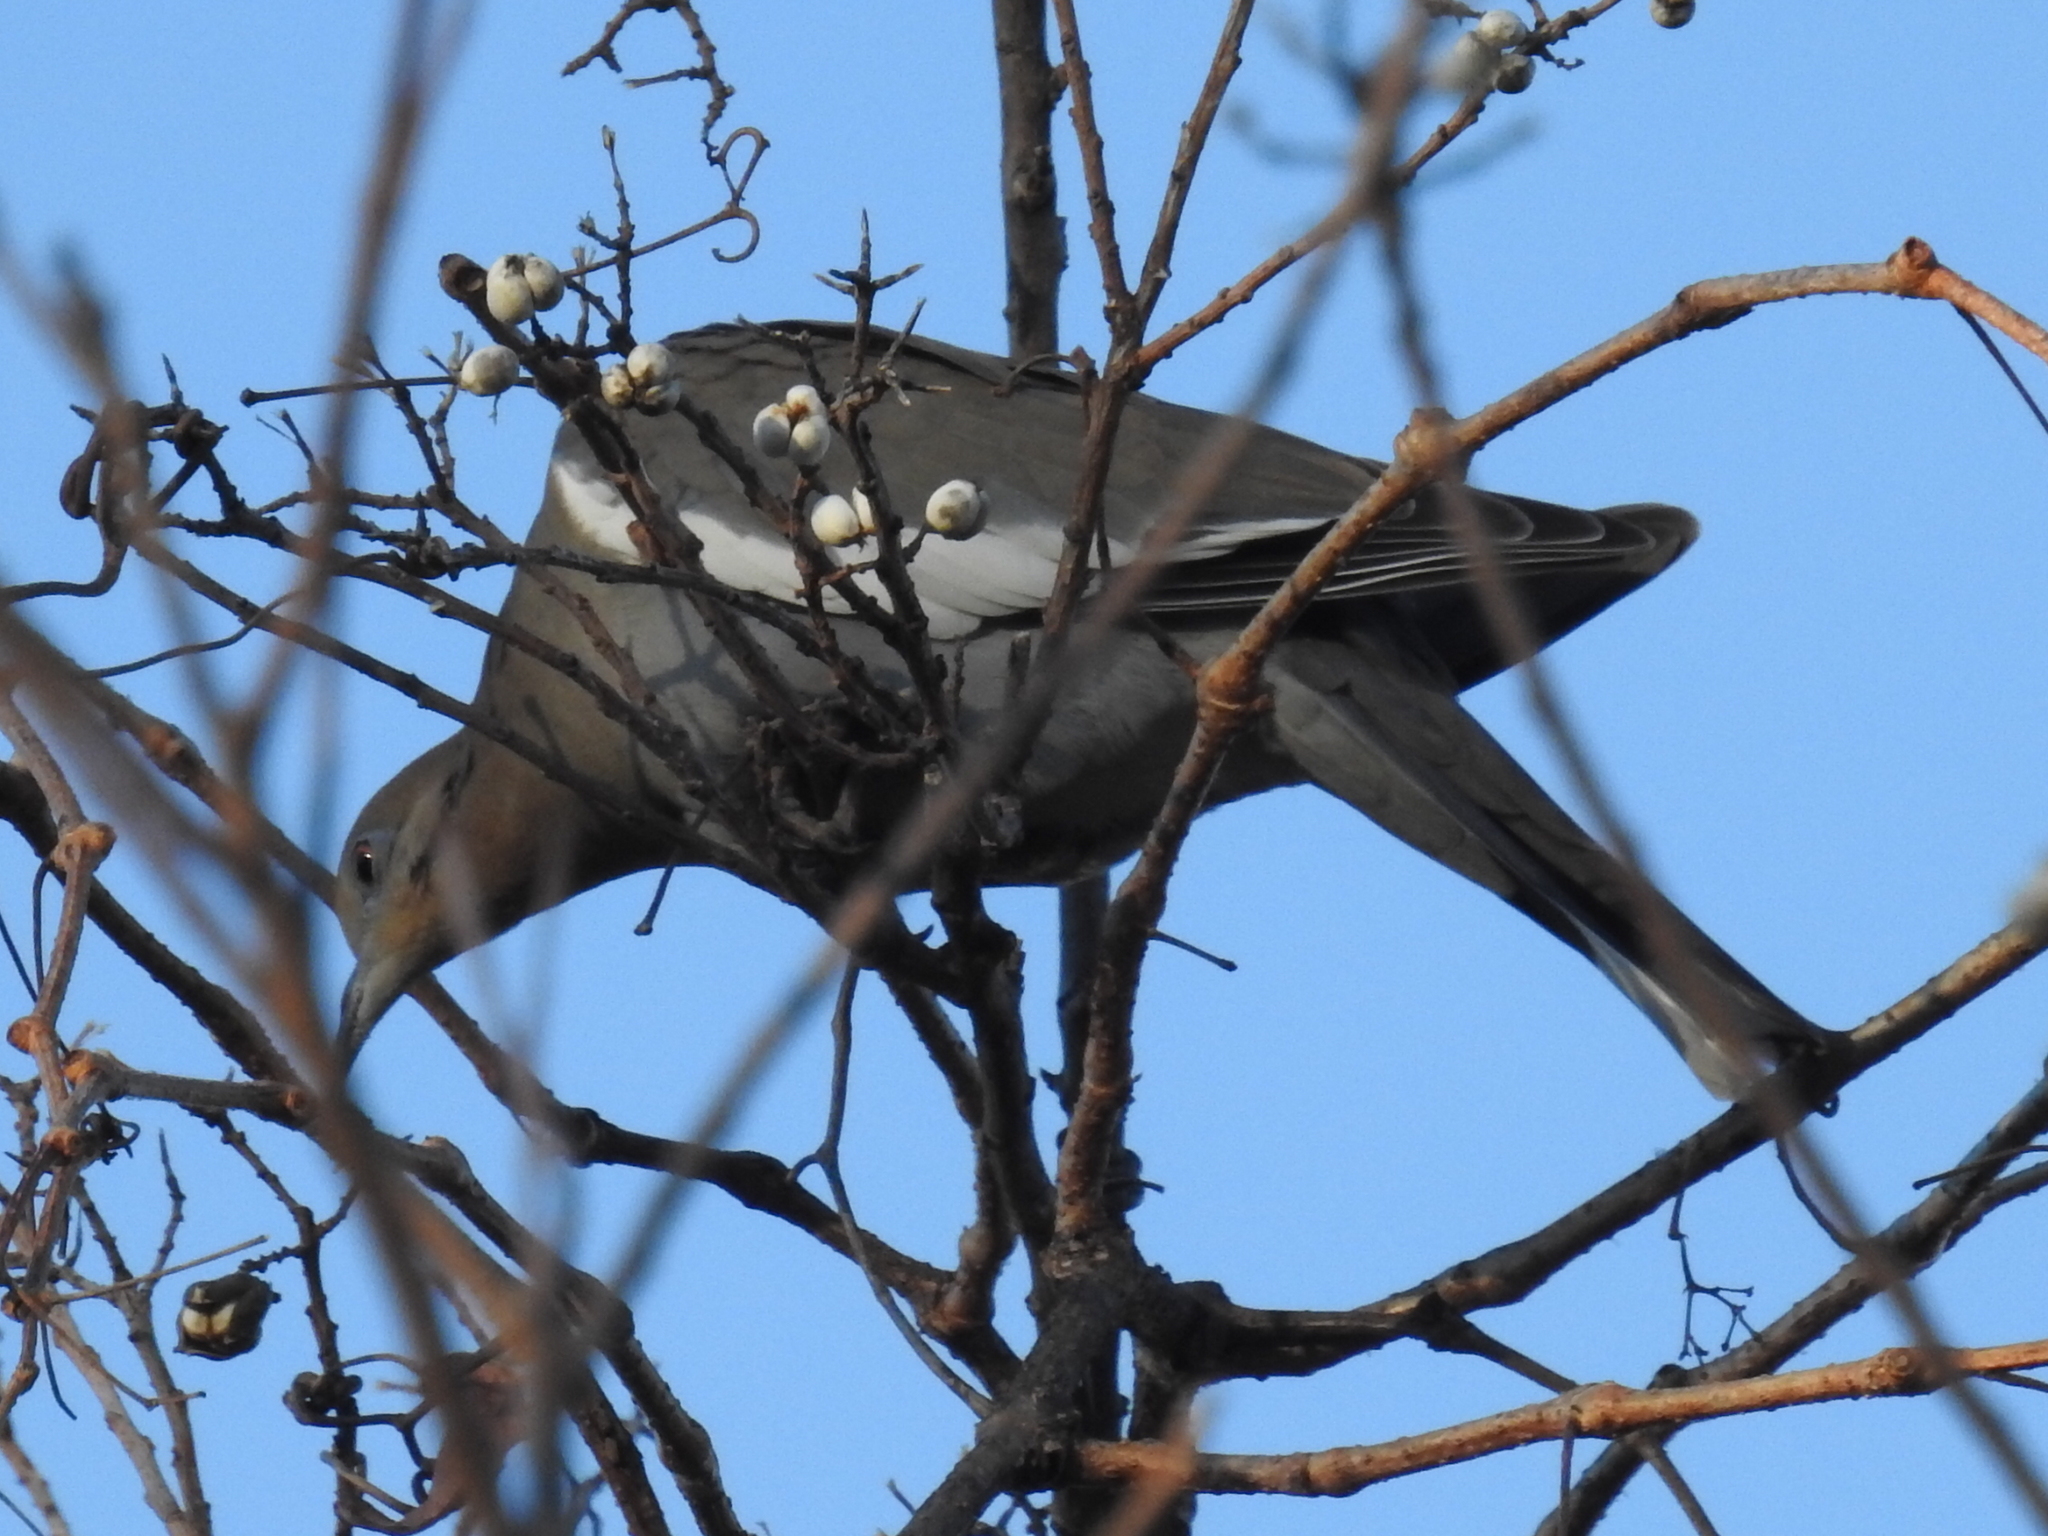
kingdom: Animalia
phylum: Chordata
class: Aves
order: Columbiformes
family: Columbidae
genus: Zenaida
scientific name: Zenaida asiatica
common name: White-winged dove
